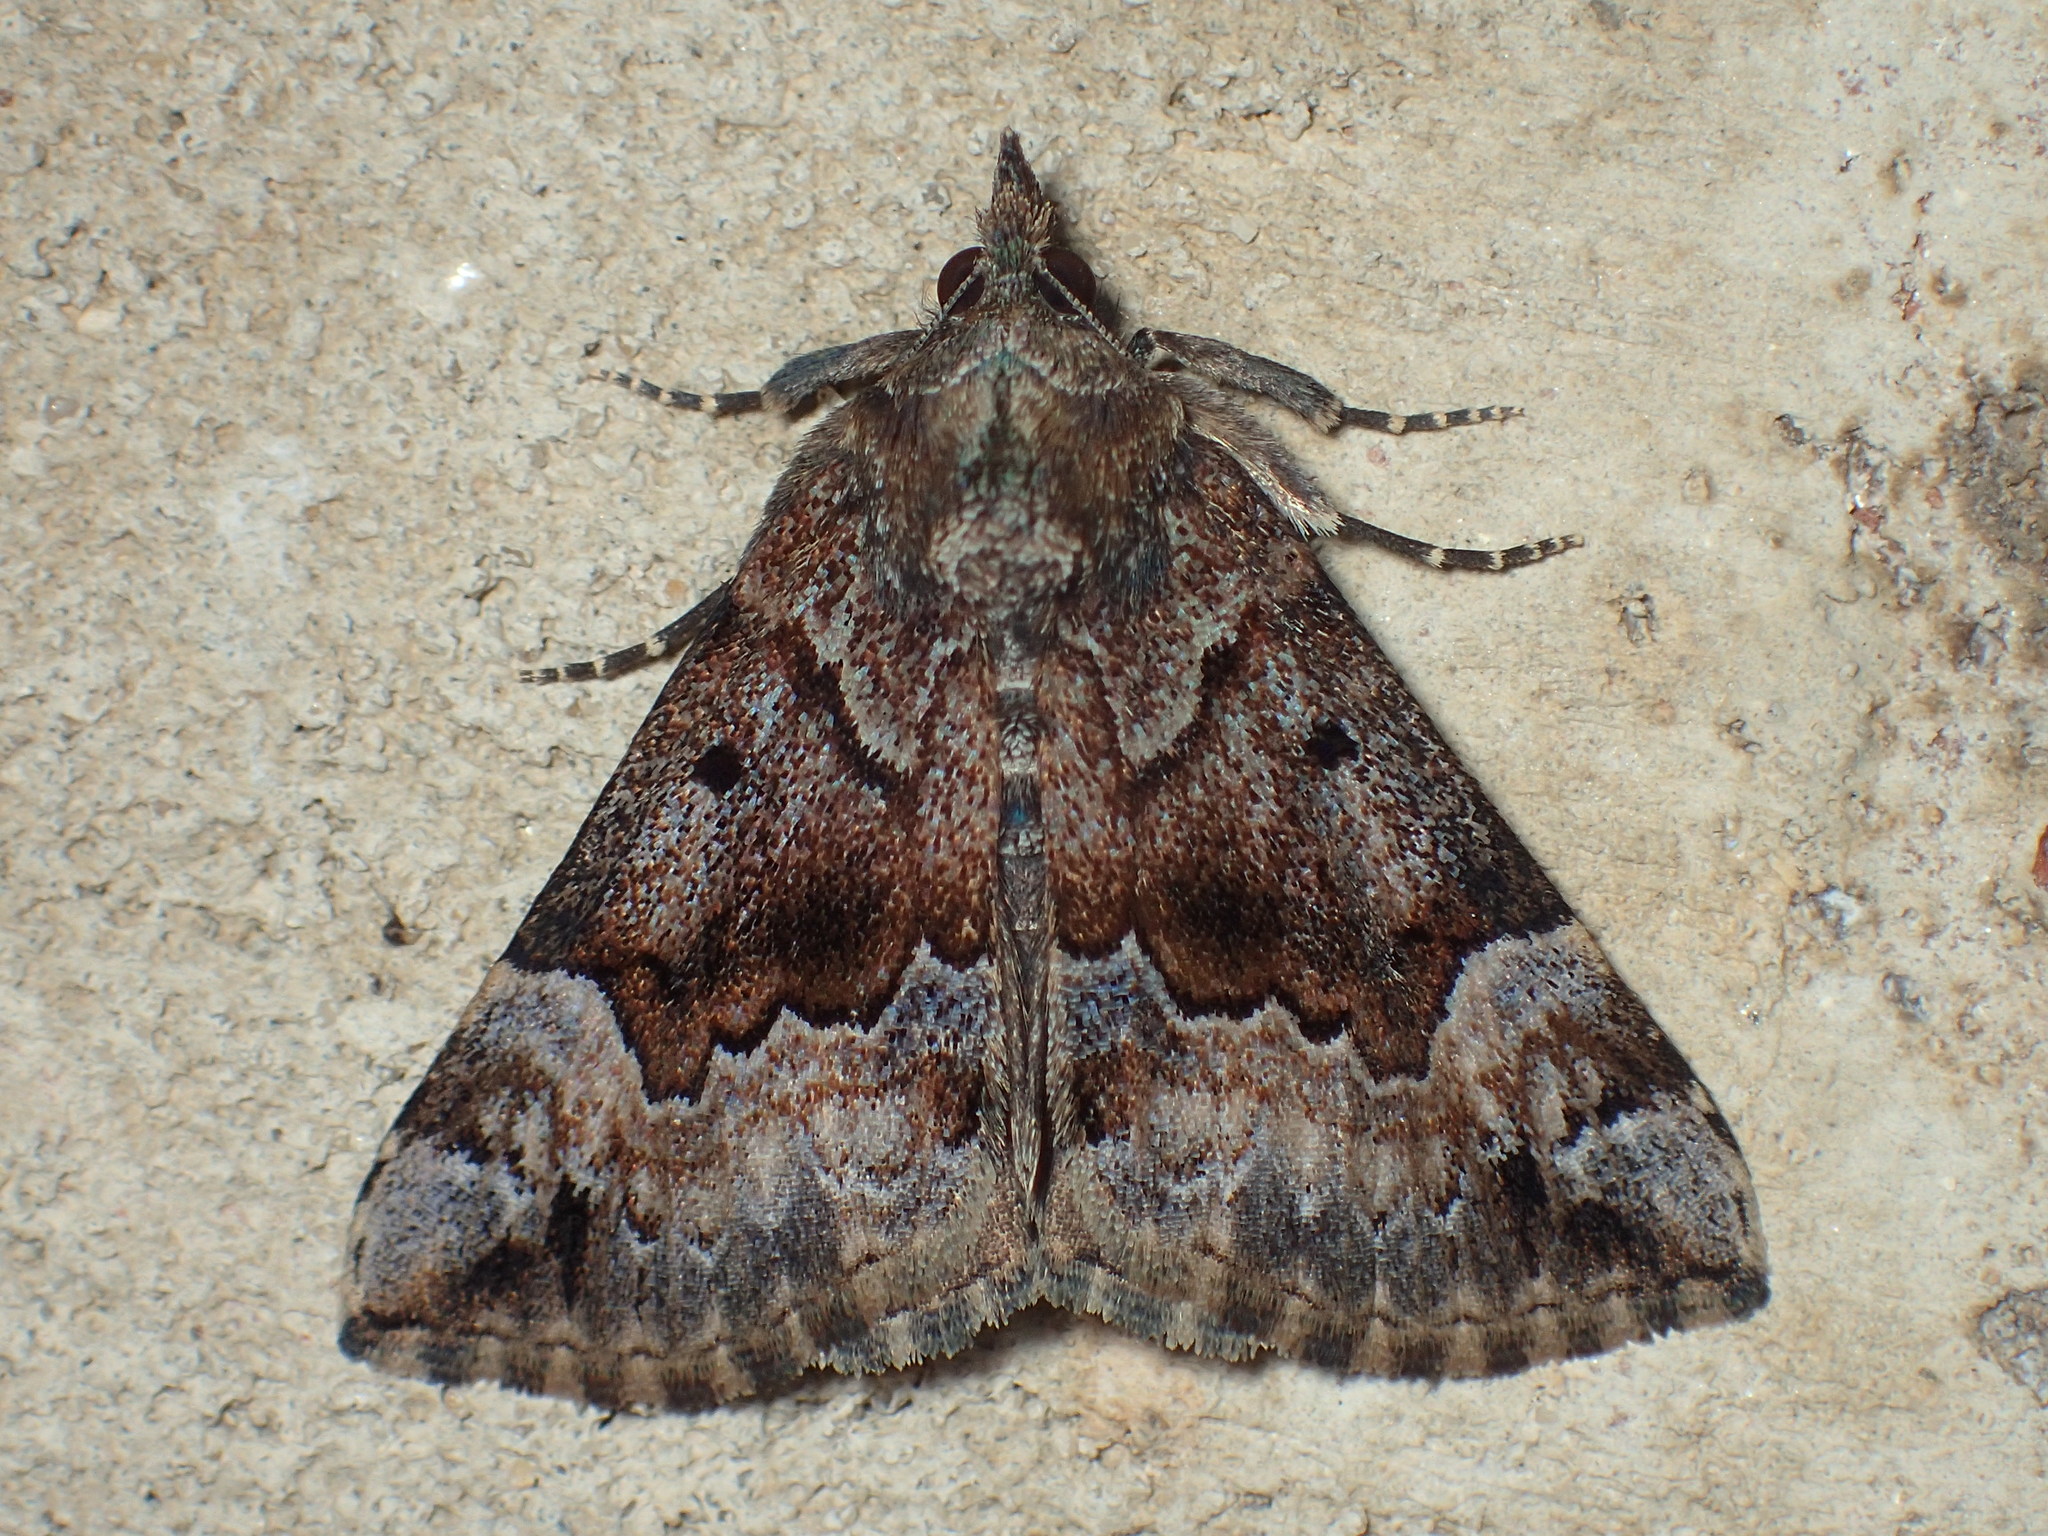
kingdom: Animalia
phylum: Arthropoda
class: Insecta
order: Lepidoptera
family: Erebidae
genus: Hypena
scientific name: Hypena palparia
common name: Mottled bomolocha moth
